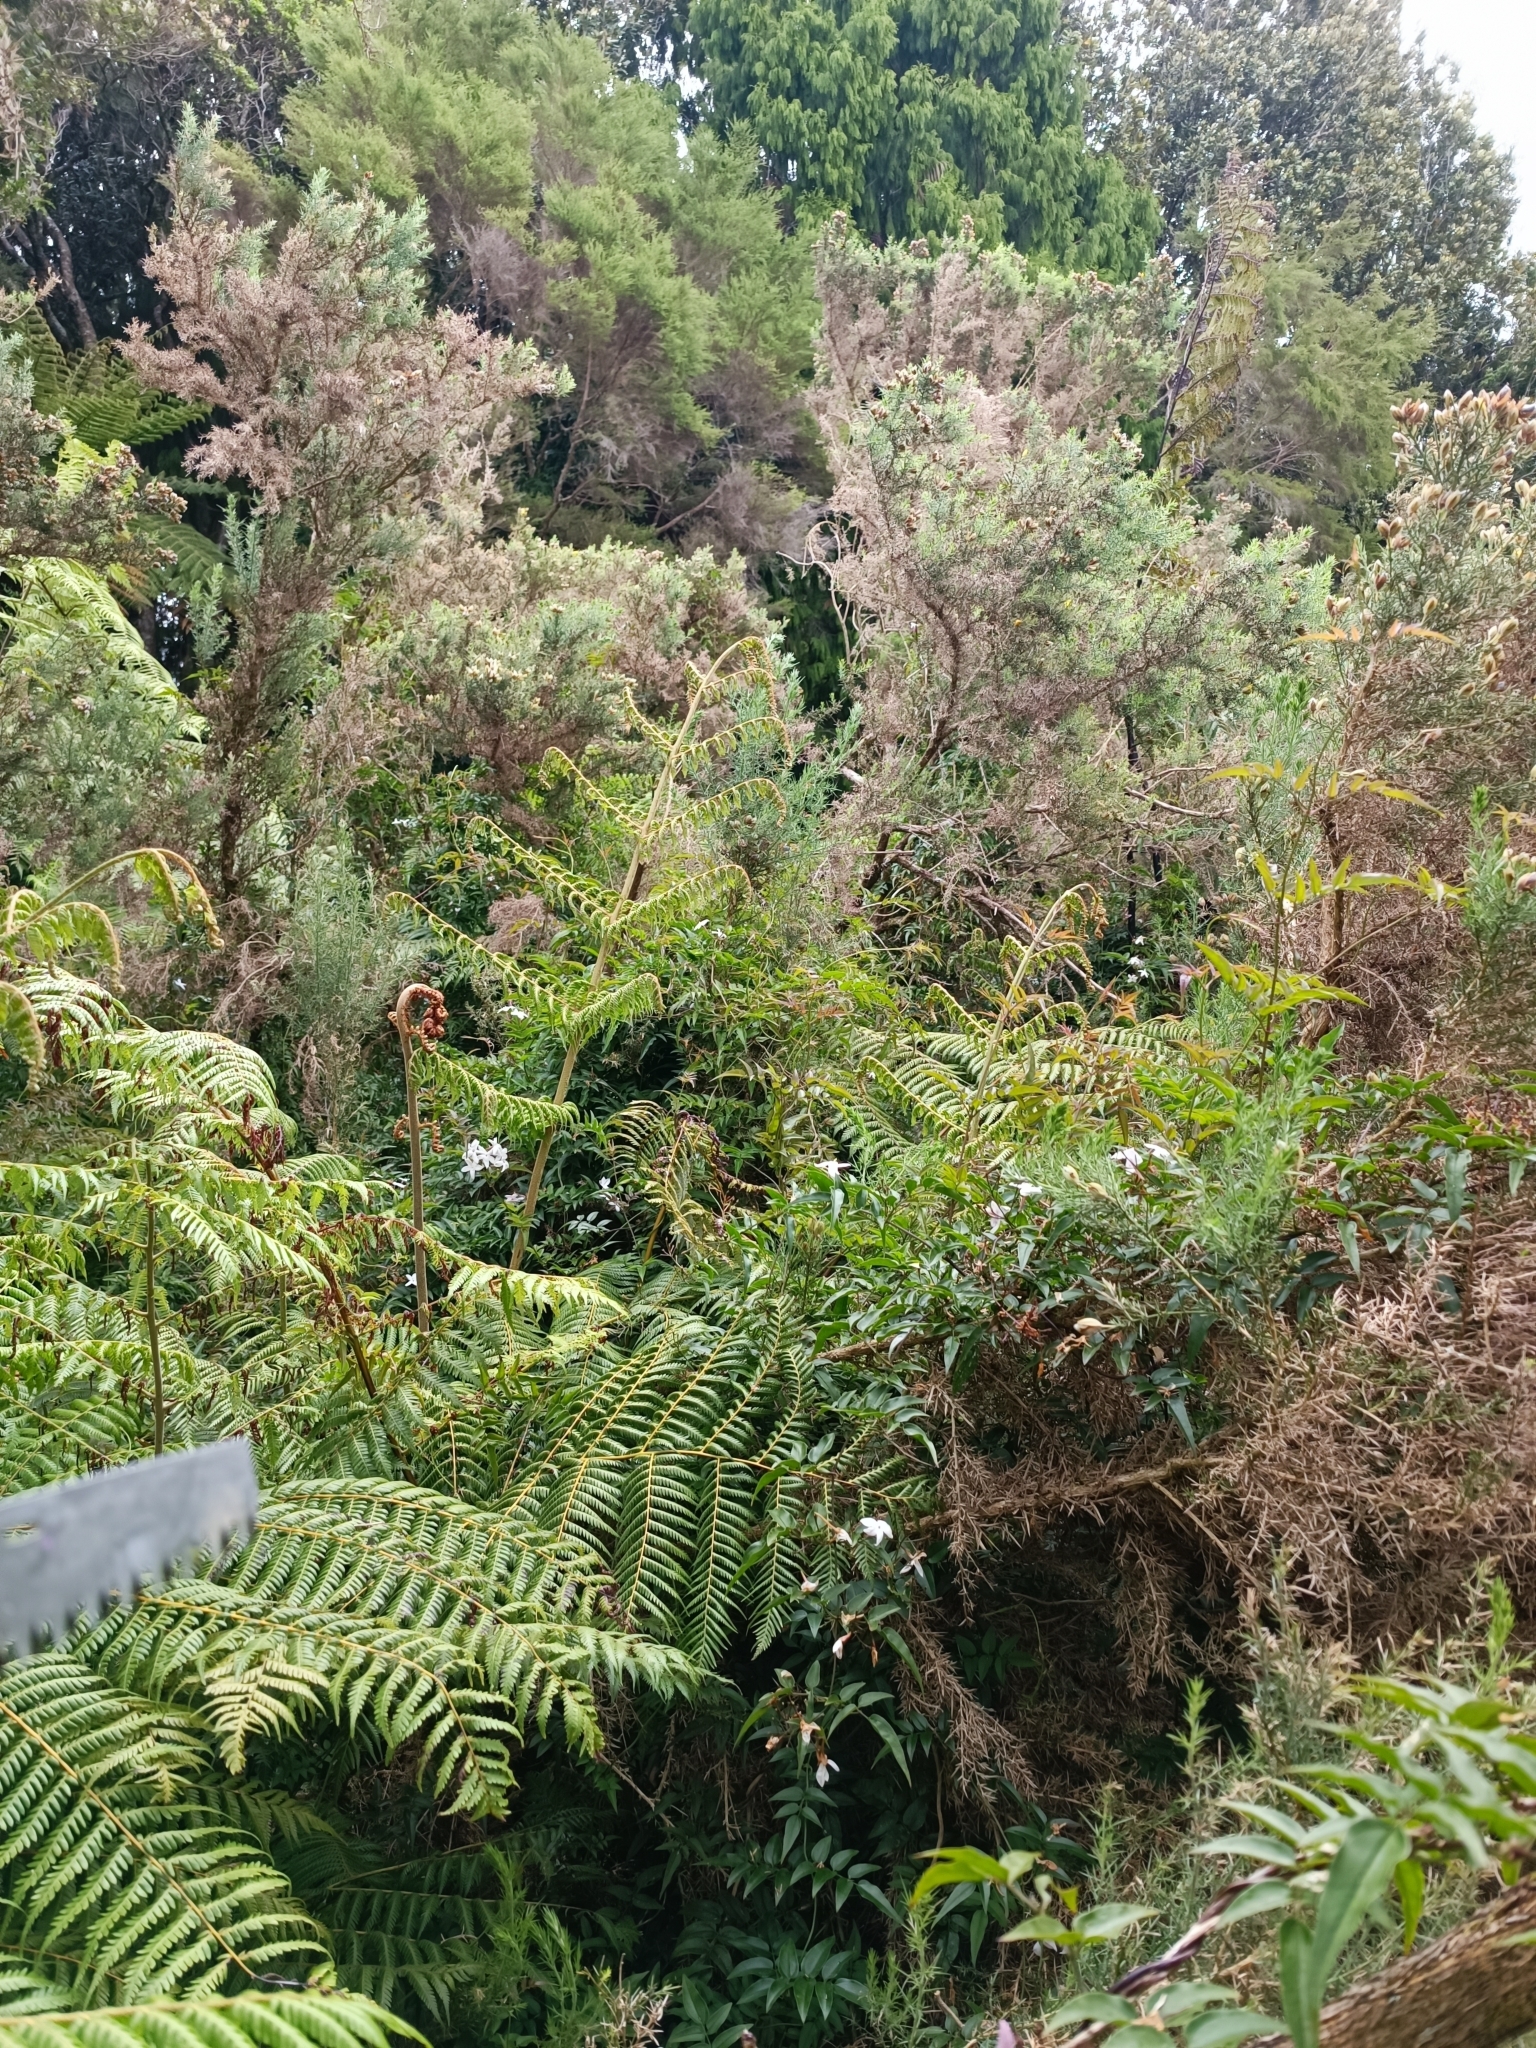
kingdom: Plantae
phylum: Tracheophyta
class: Magnoliopsida
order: Lamiales
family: Oleaceae
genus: Jasminum
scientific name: Jasminum polyanthum
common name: Pink jasmine
